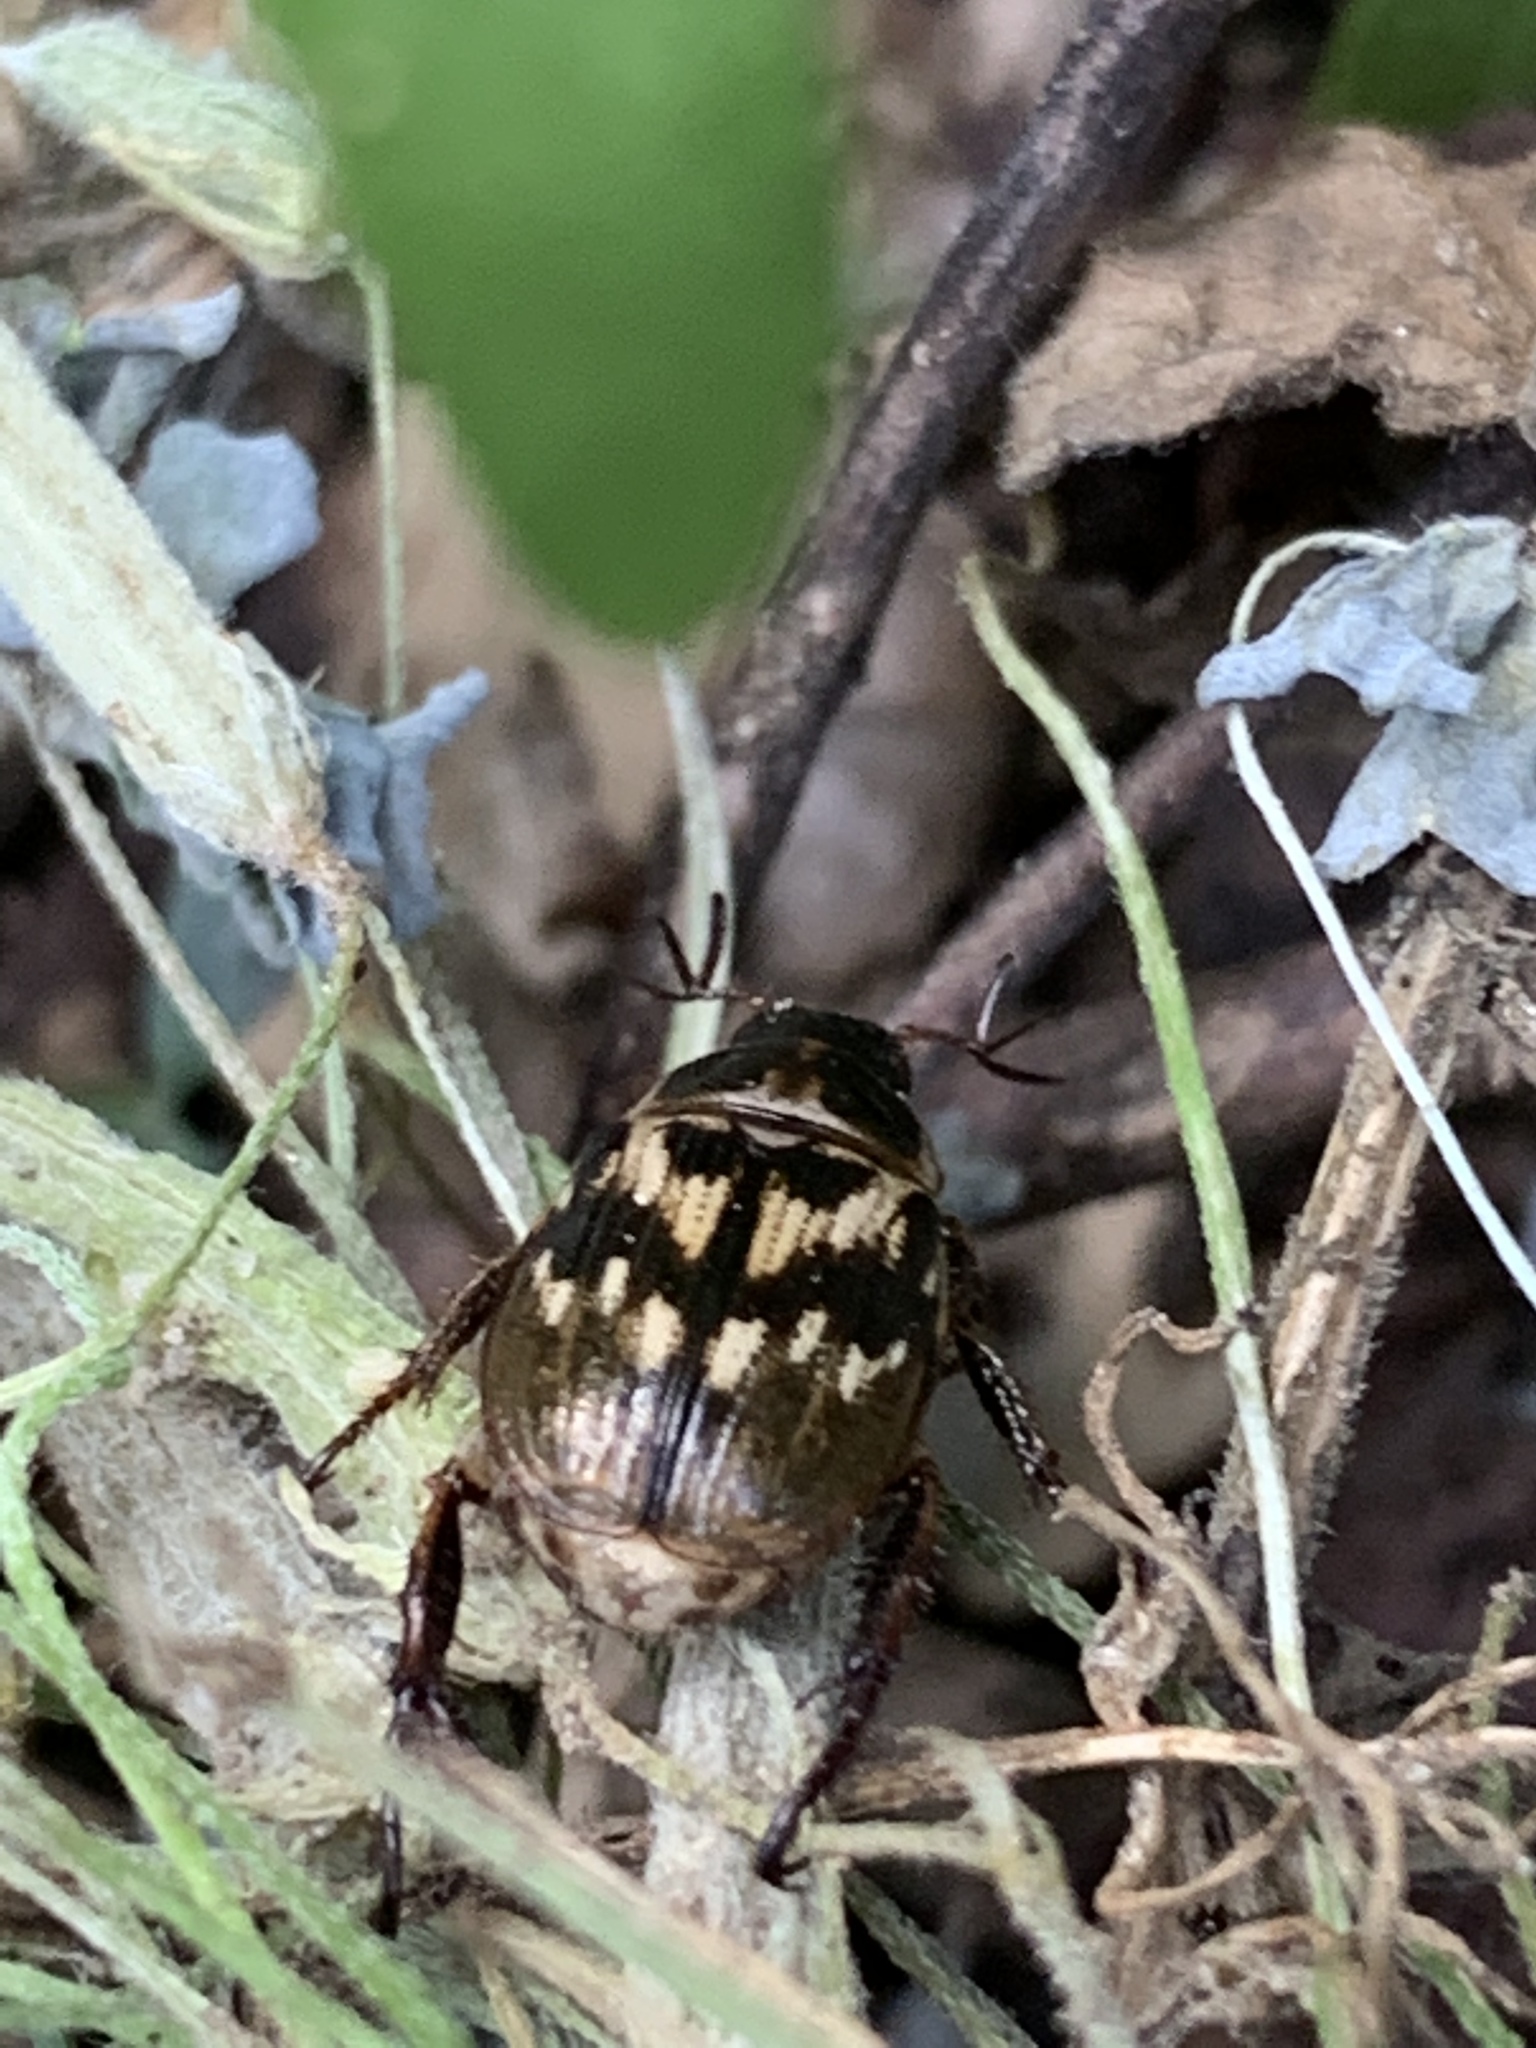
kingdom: Animalia
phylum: Arthropoda
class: Insecta
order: Coleoptera
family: Scarabaeidae
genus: Exomala
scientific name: Exomala orientalis
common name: Oriental beetle
